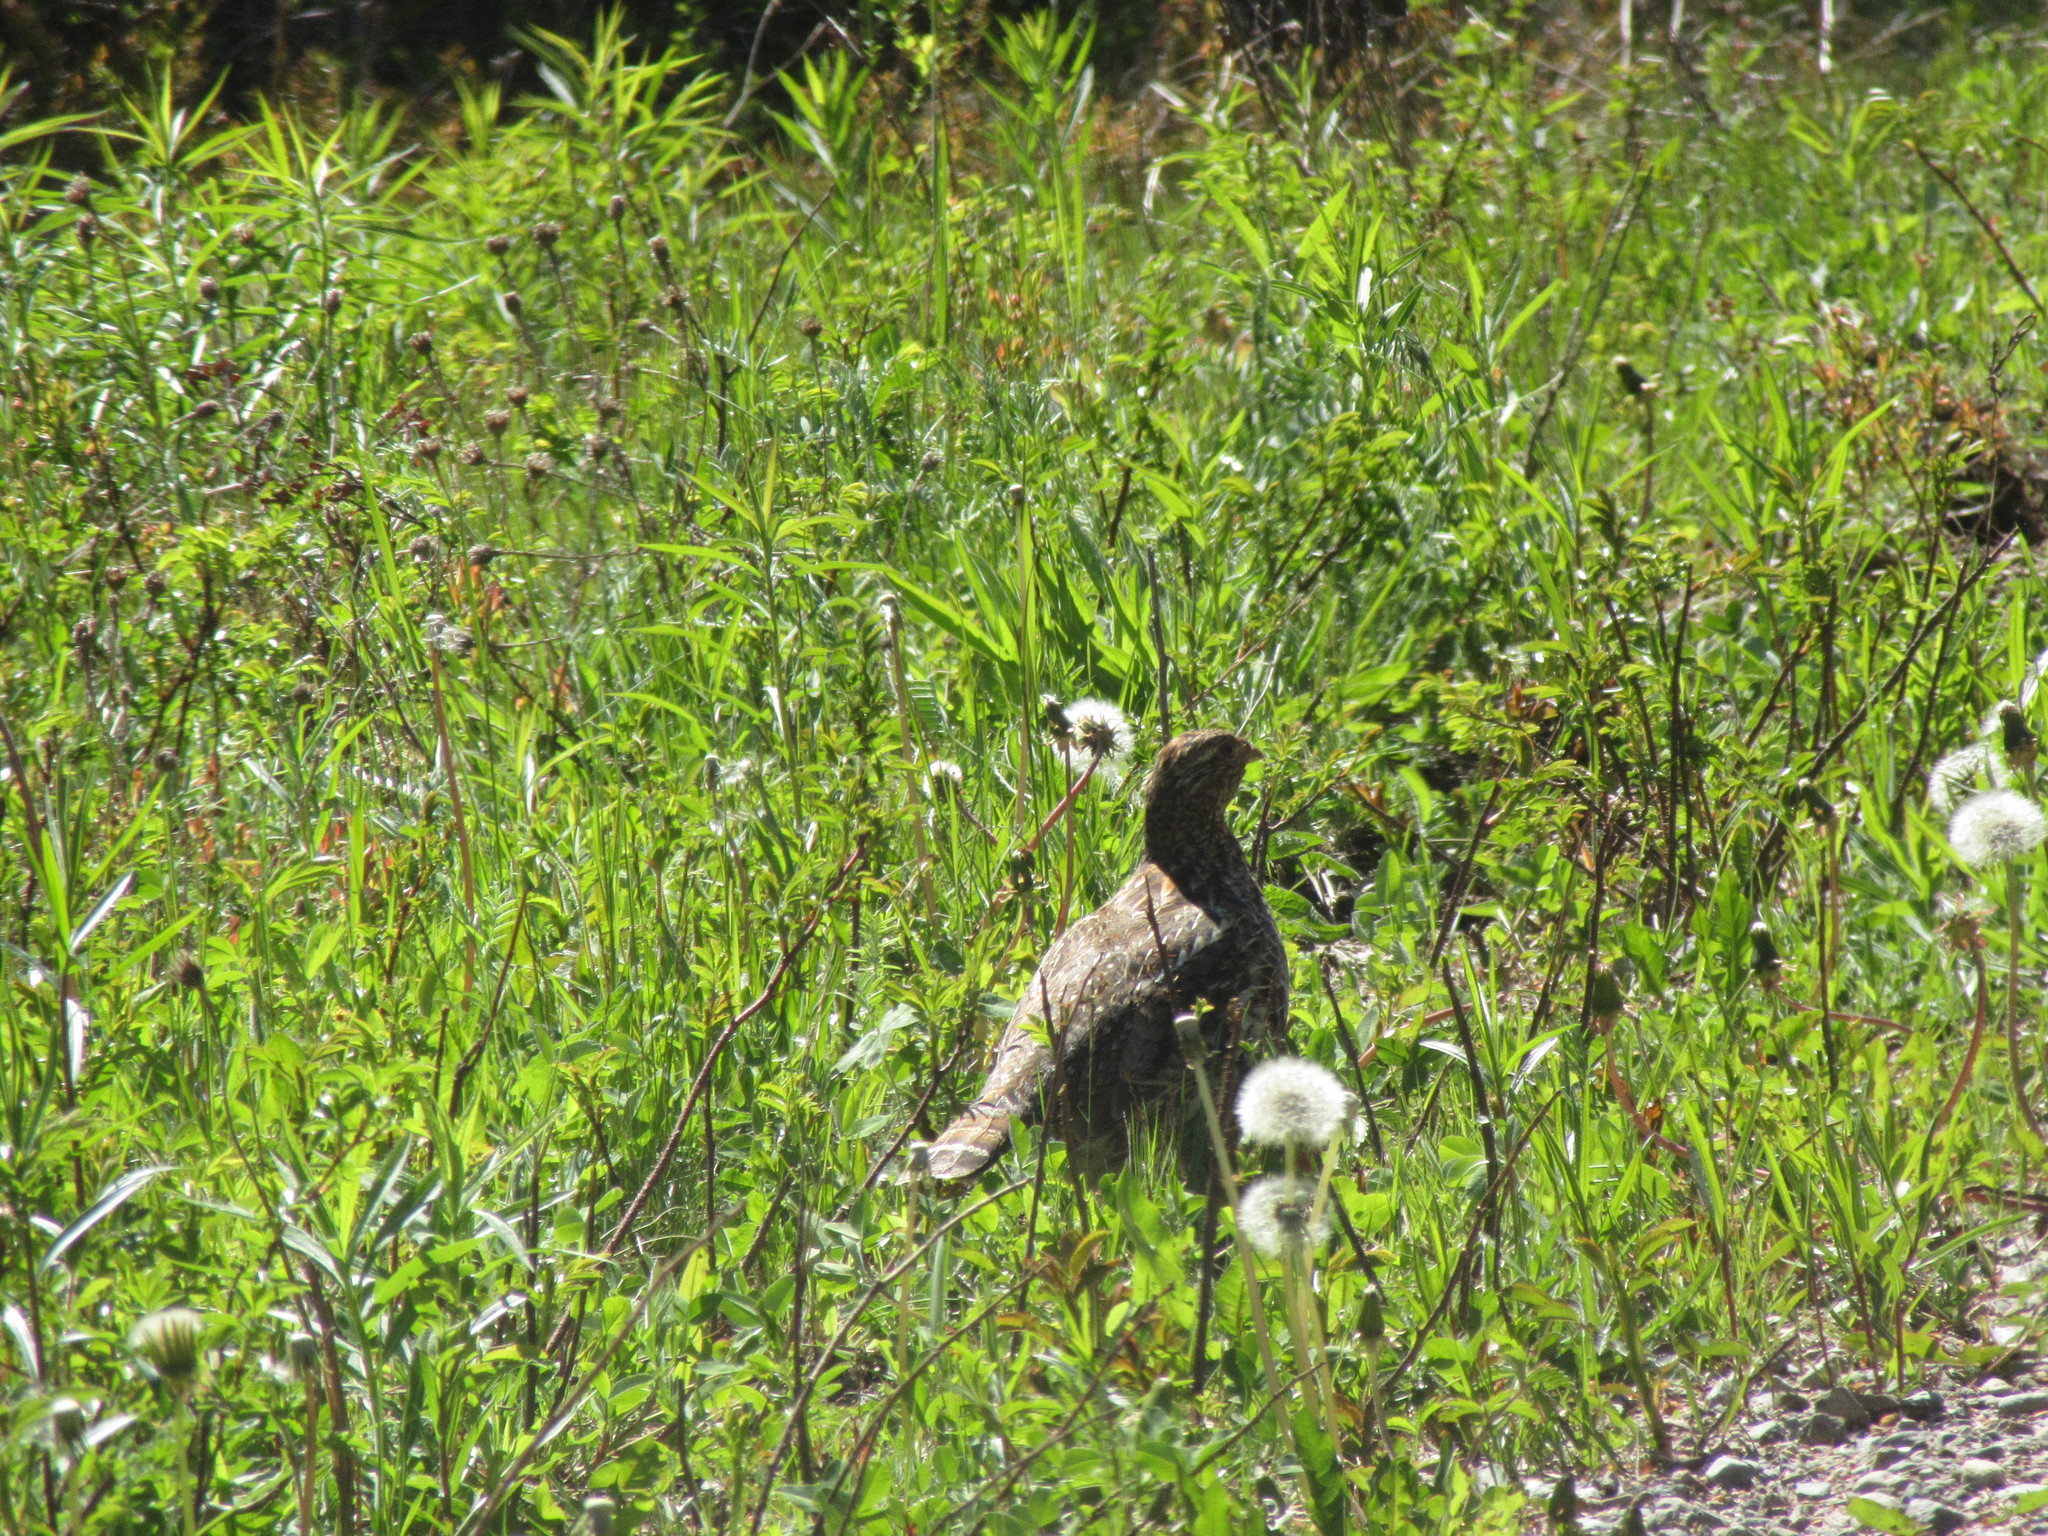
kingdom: Animalia
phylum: Chordata
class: Aves
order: Galliformes
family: Phasianidae
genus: Bonasa
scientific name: Bonasa umbellus
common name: Ruffed grouse
